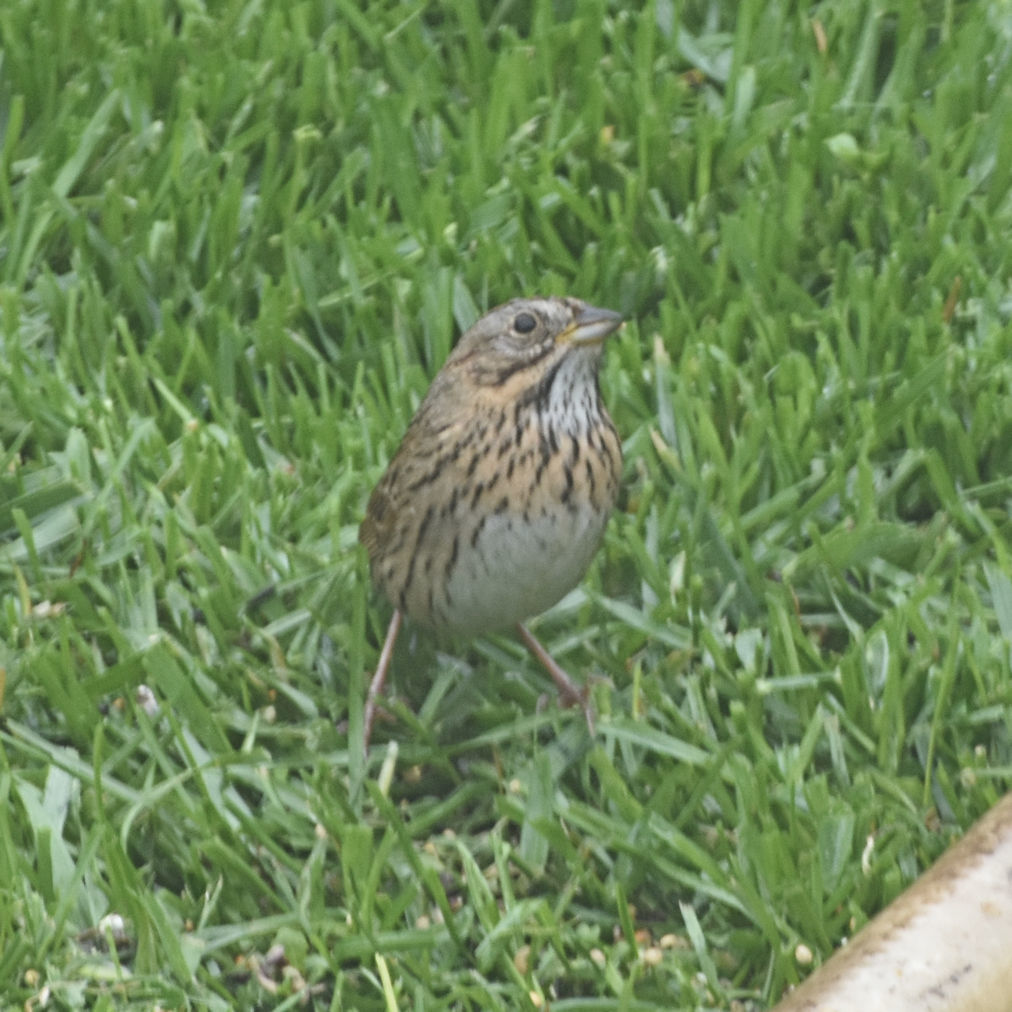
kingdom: Animalia
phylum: Chordata
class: Aves
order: Passeriformes
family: Passerellidae
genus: Melospiza
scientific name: Melospiza lincolnii
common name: Lincoln's sparrow
